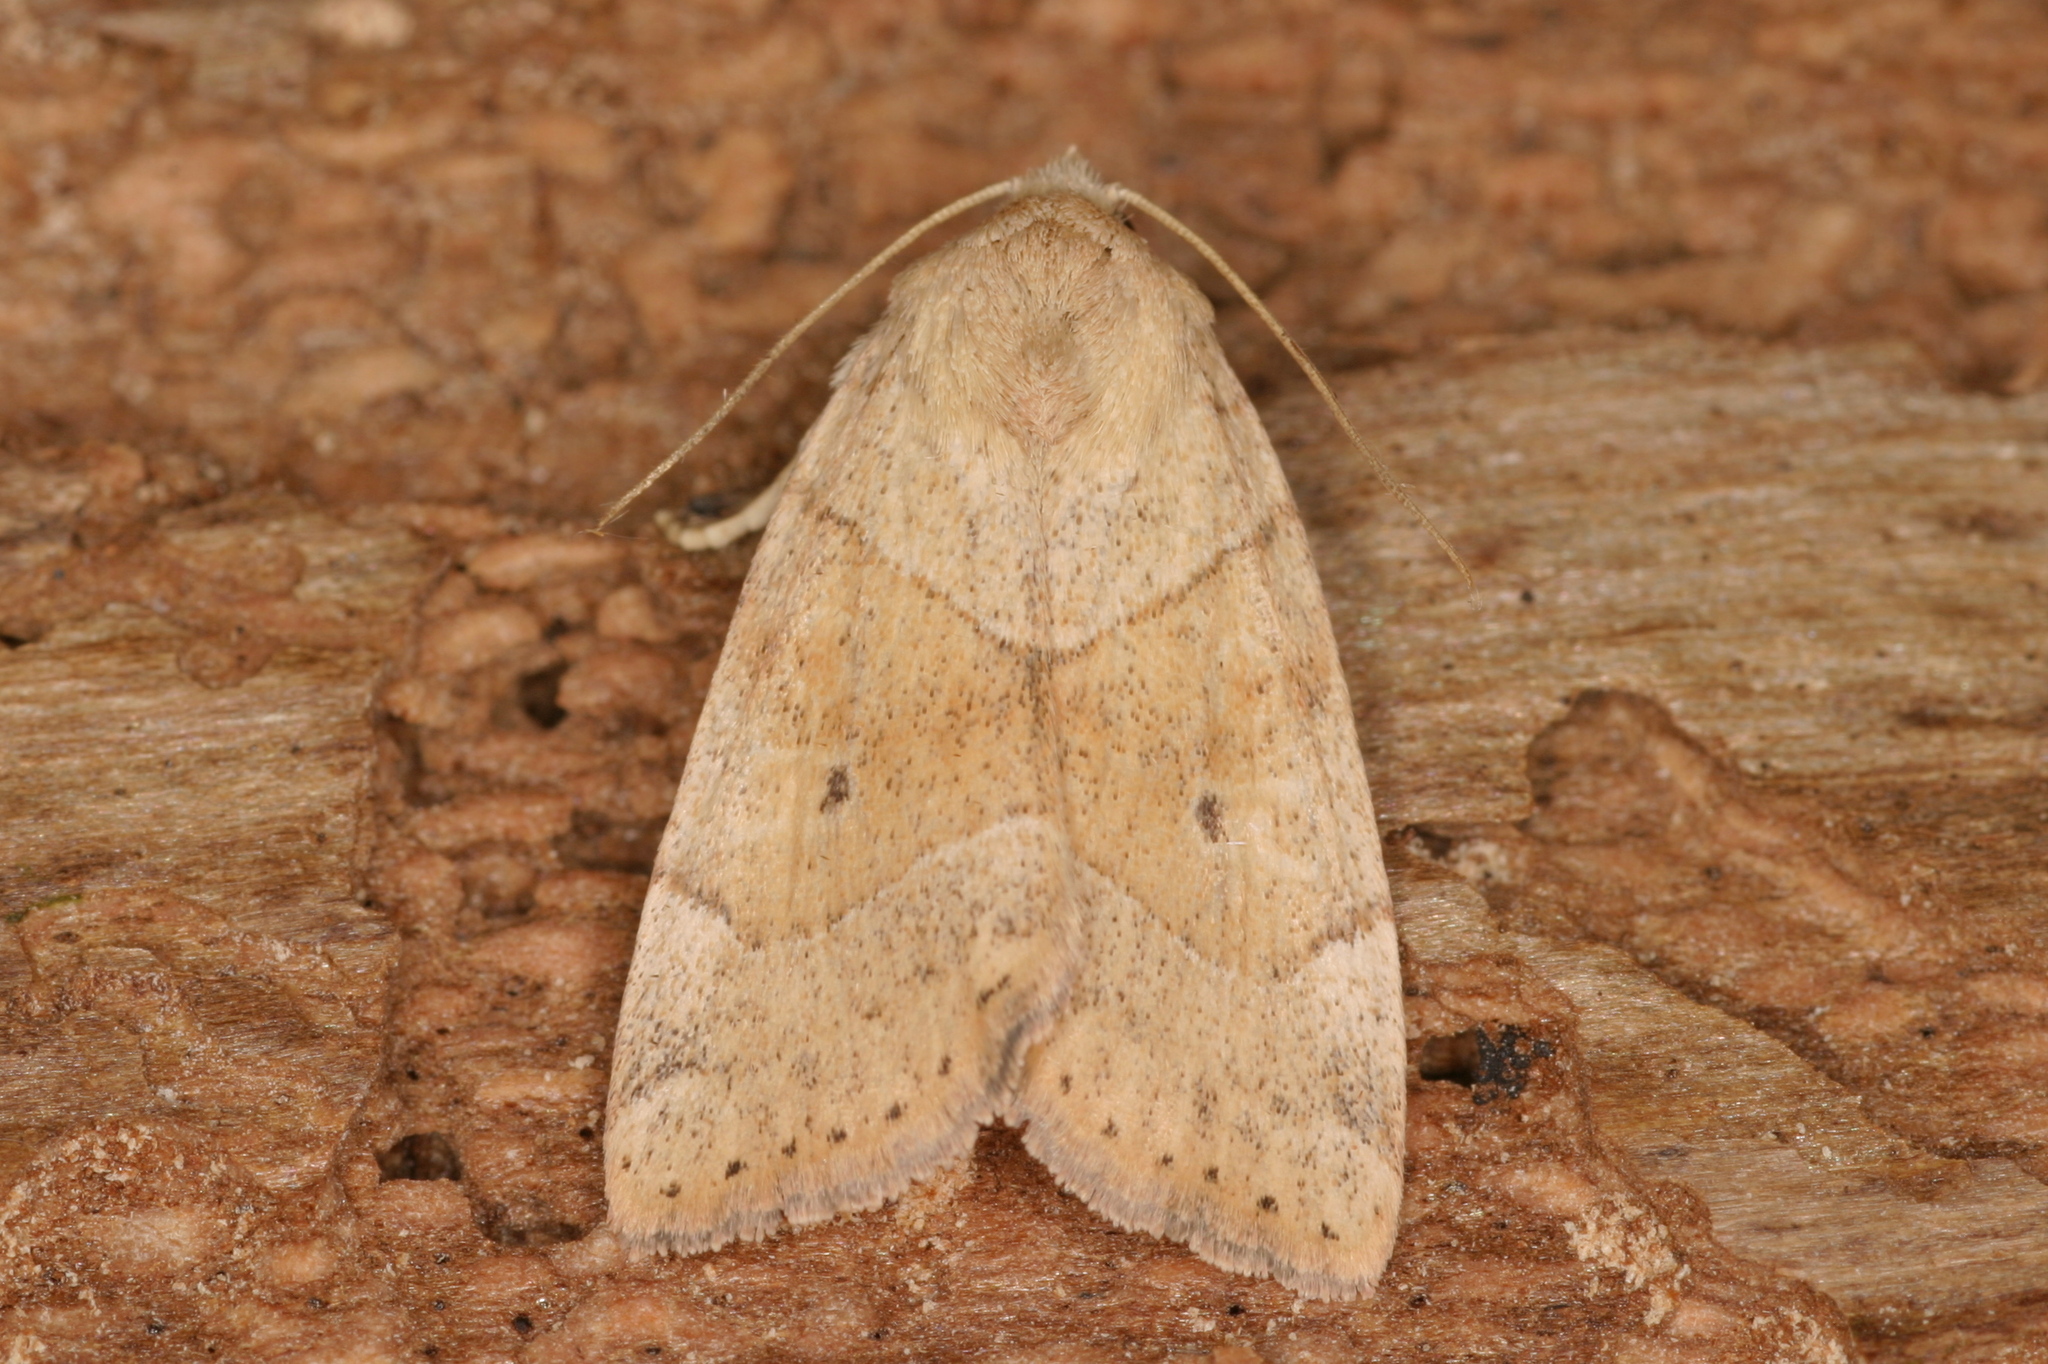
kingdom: Animalia
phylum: Arthropoda
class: Insecta
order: Lepidoptera
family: Noctuidae
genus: Cosmia
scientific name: Cosmia trapezina
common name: Dun-bar
